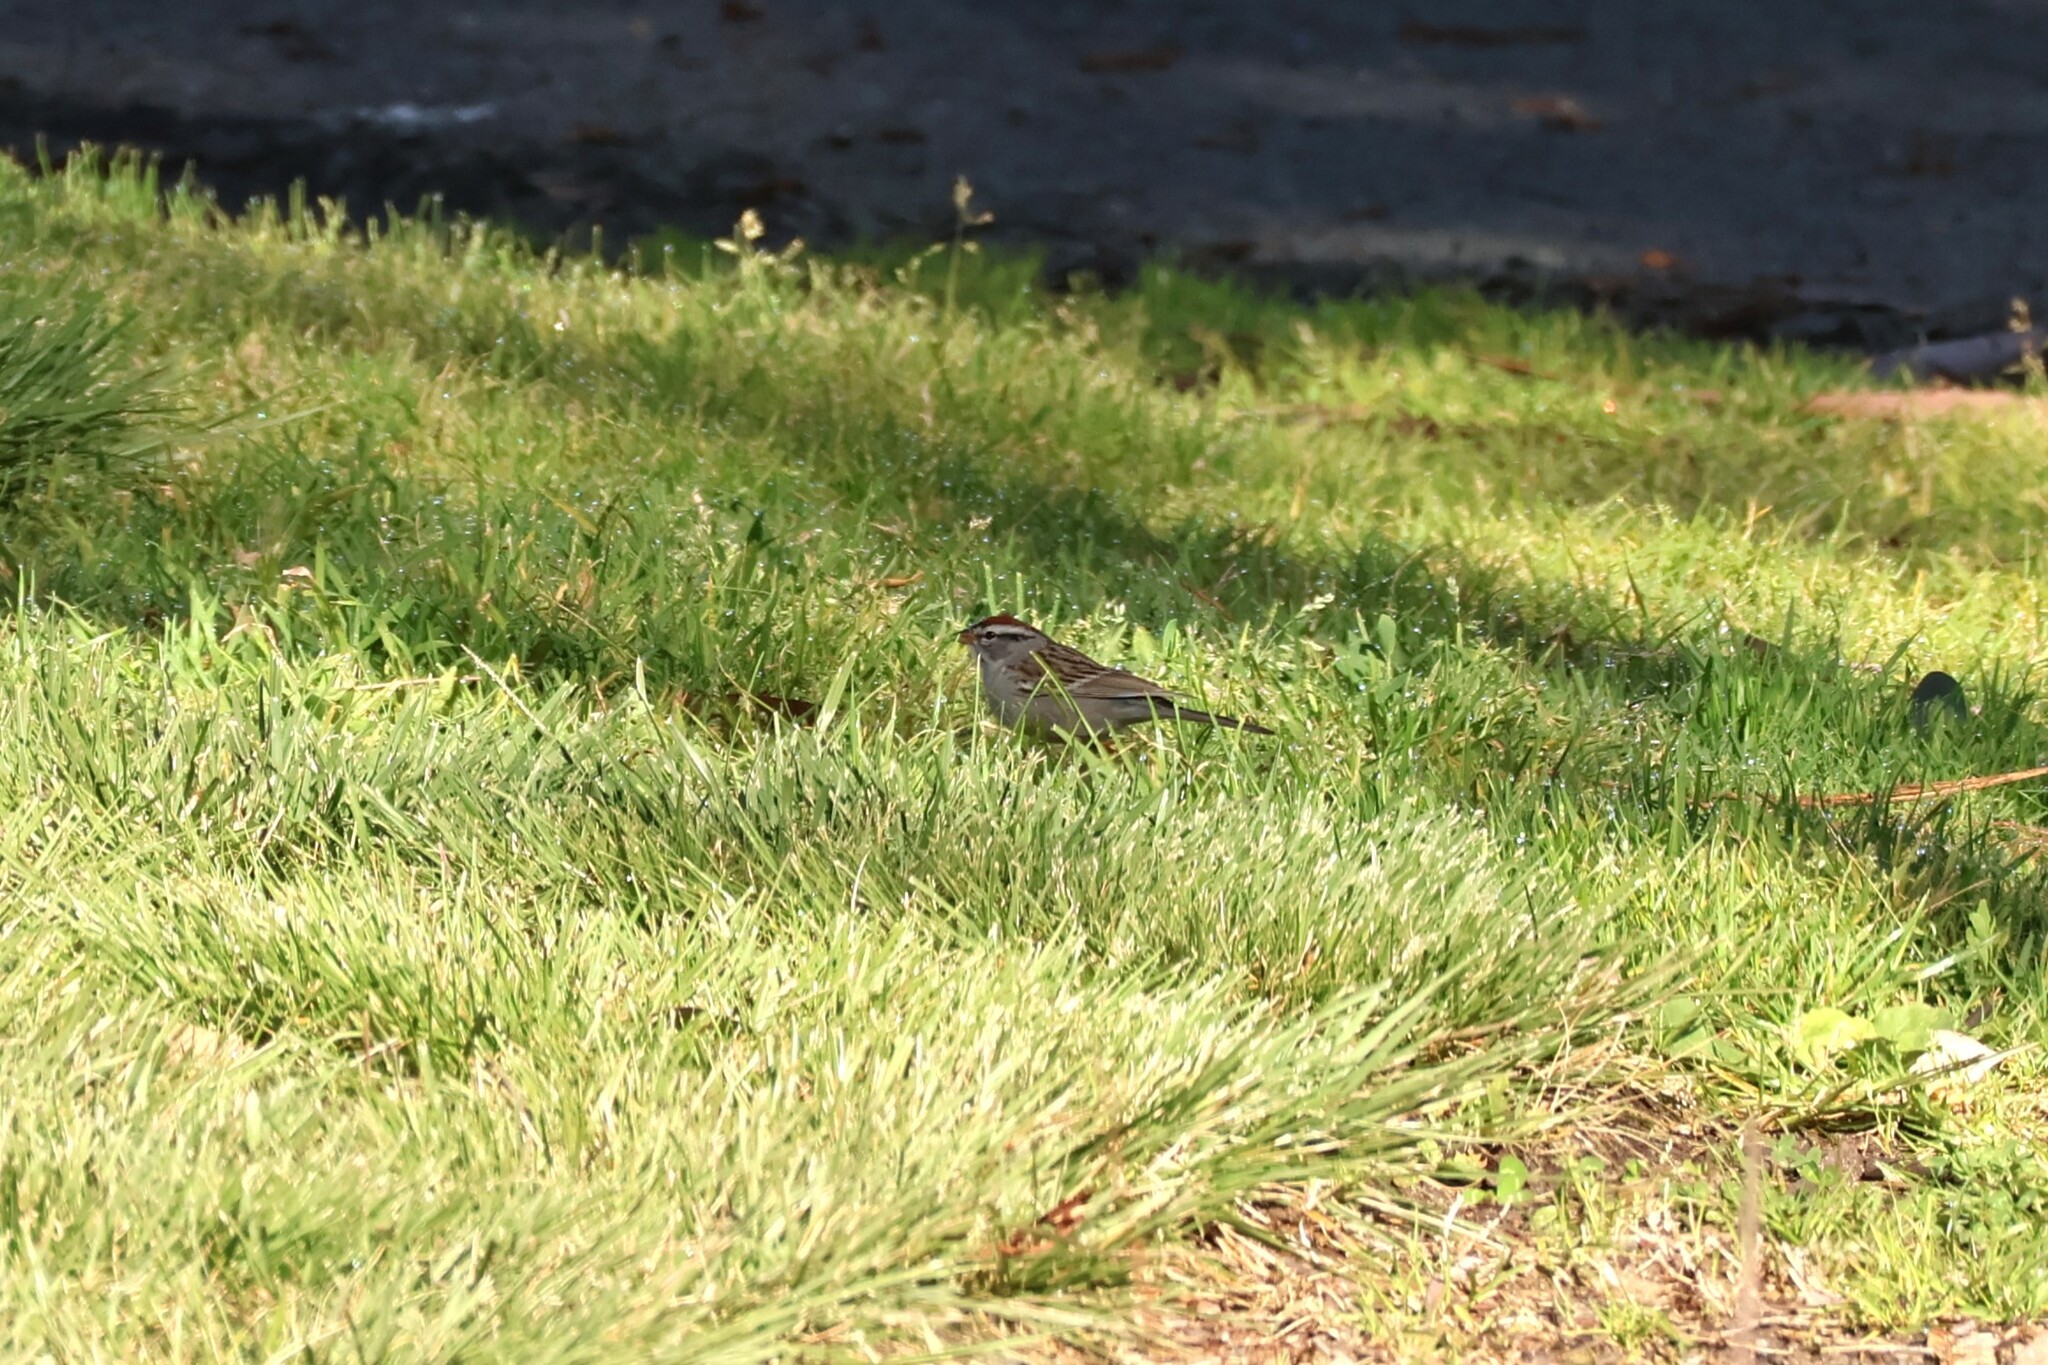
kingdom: Animalia
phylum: Chordata
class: Aves
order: Passeriformes
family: Passerellidae
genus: Spizella
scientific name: Spizella passerina
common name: Chipping sparrow
